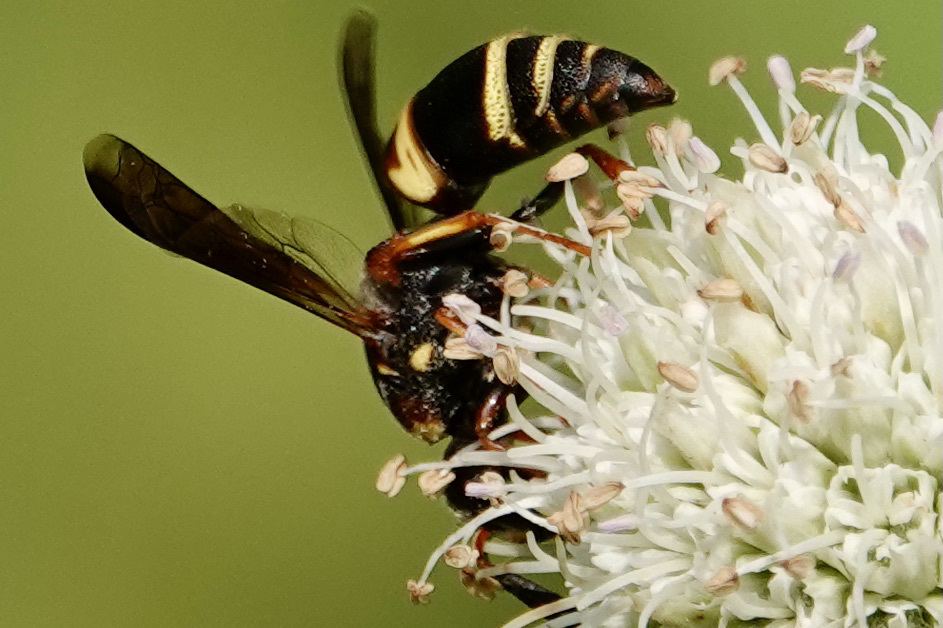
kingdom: Animalia
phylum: Arthropoda
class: Insecta
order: Hymenoptera
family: Eumenidae
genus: Euodynerus
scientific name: Euodynerus hidalgo
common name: Wasp
